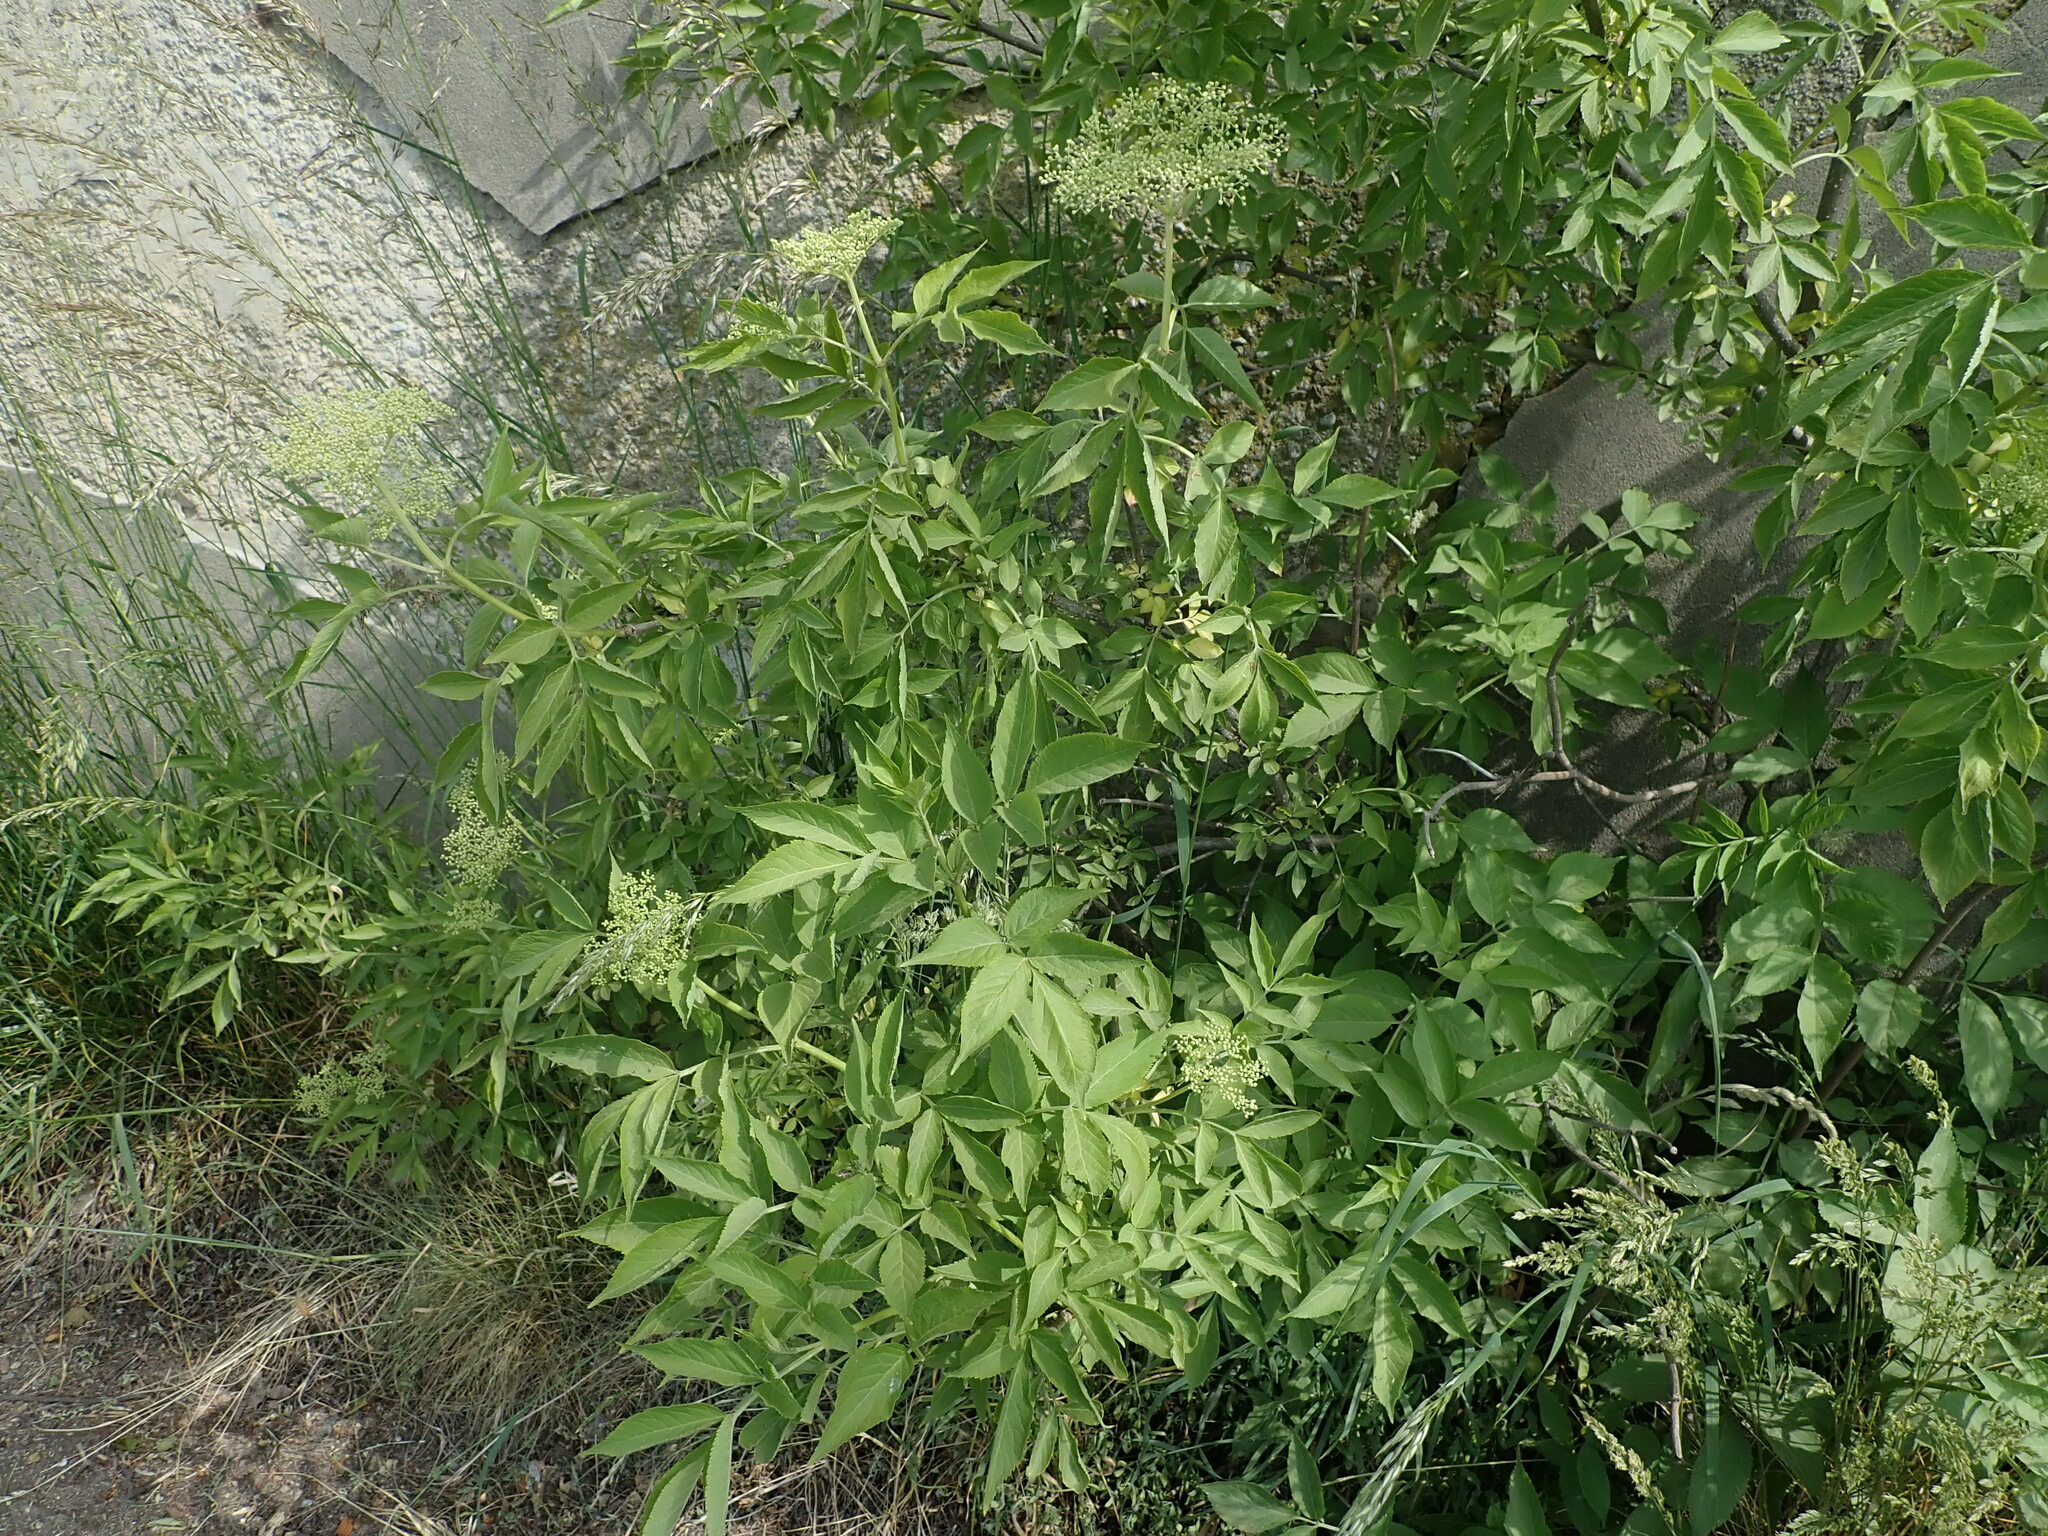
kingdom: Plantae
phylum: Tracheophyta
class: Magnoliopsida
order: Dipsacales
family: Viburnaceae
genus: Sambucus
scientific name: Sambucus nigra
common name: Elder
